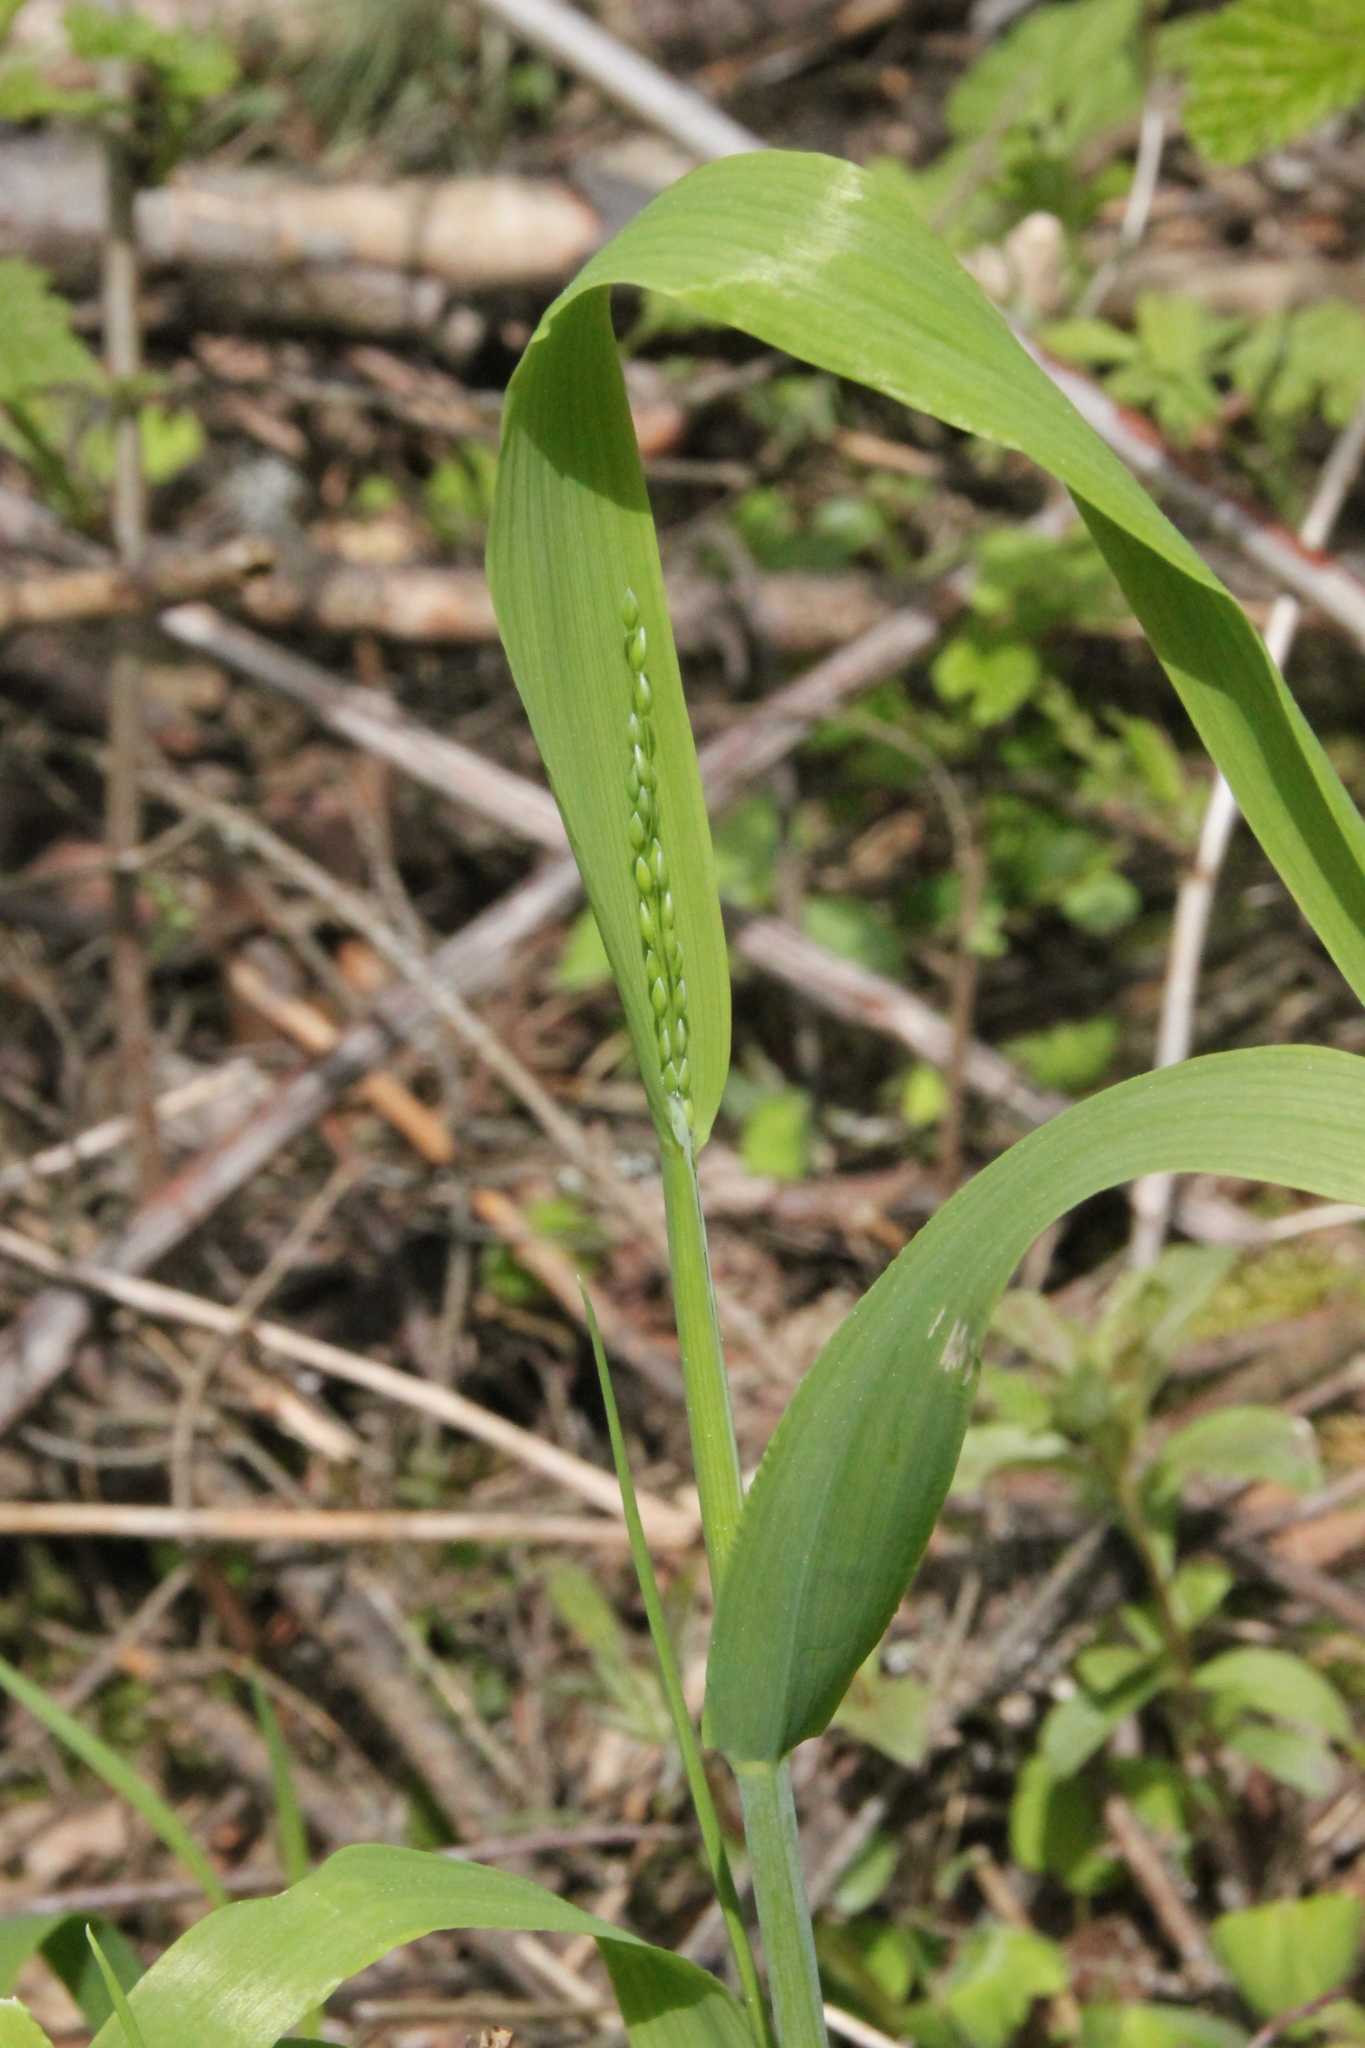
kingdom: Plantae
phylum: Tracheophyta
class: Liliopsida
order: Poales
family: Poaceae
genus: Milium
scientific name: Milium effusum
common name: Wood millet
